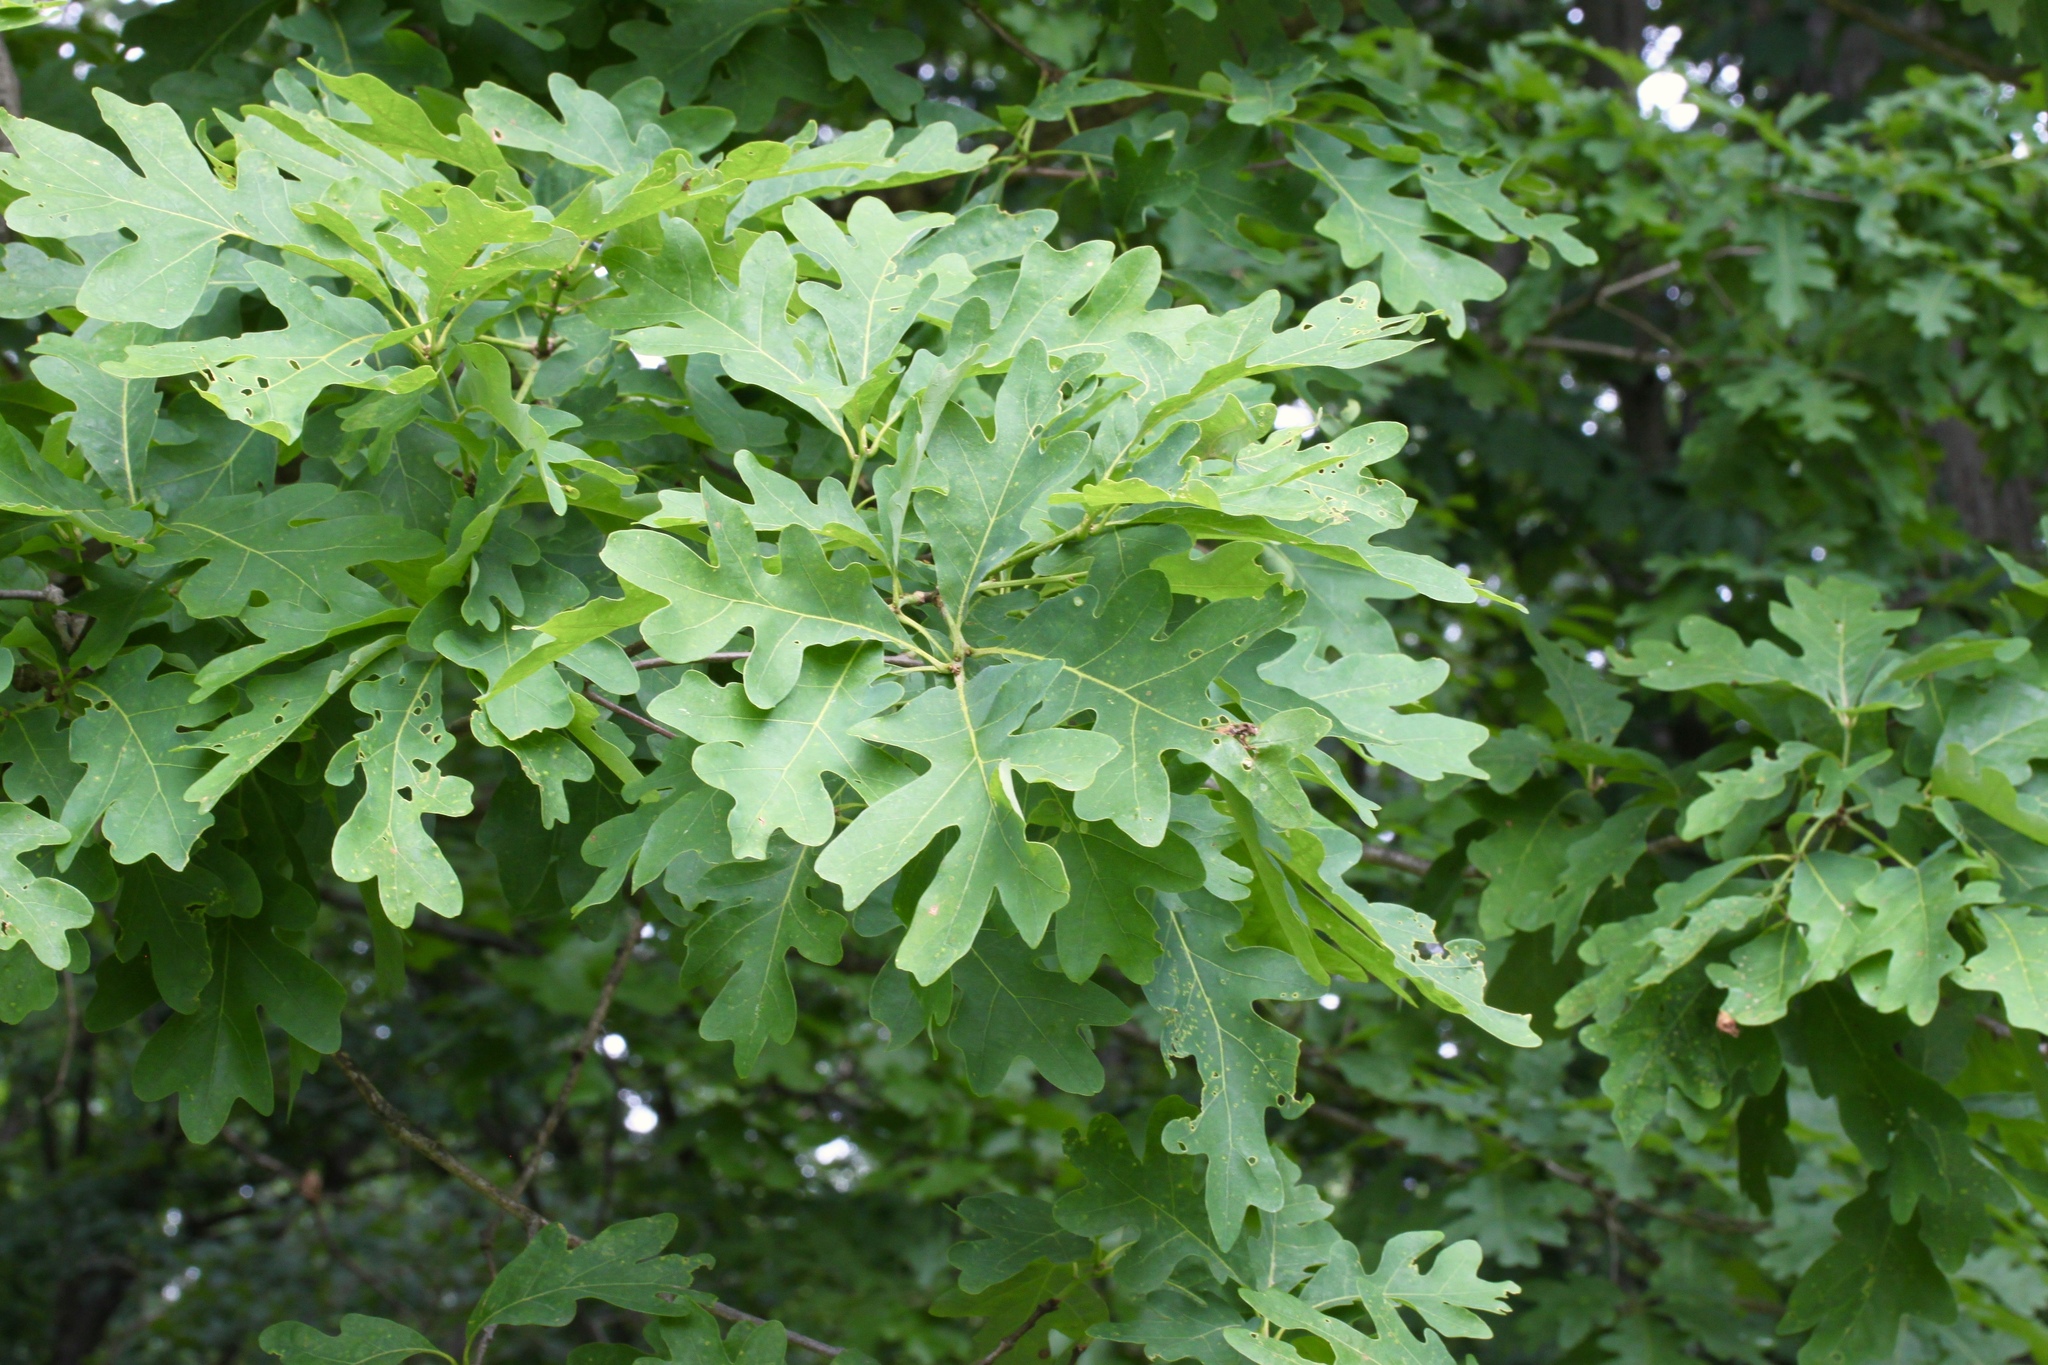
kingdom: Plantae
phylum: Tracheophyta
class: Magnoliopsida
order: Fagales
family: Fagaceae
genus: Quercus
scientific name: Quercus alba
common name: White oak
